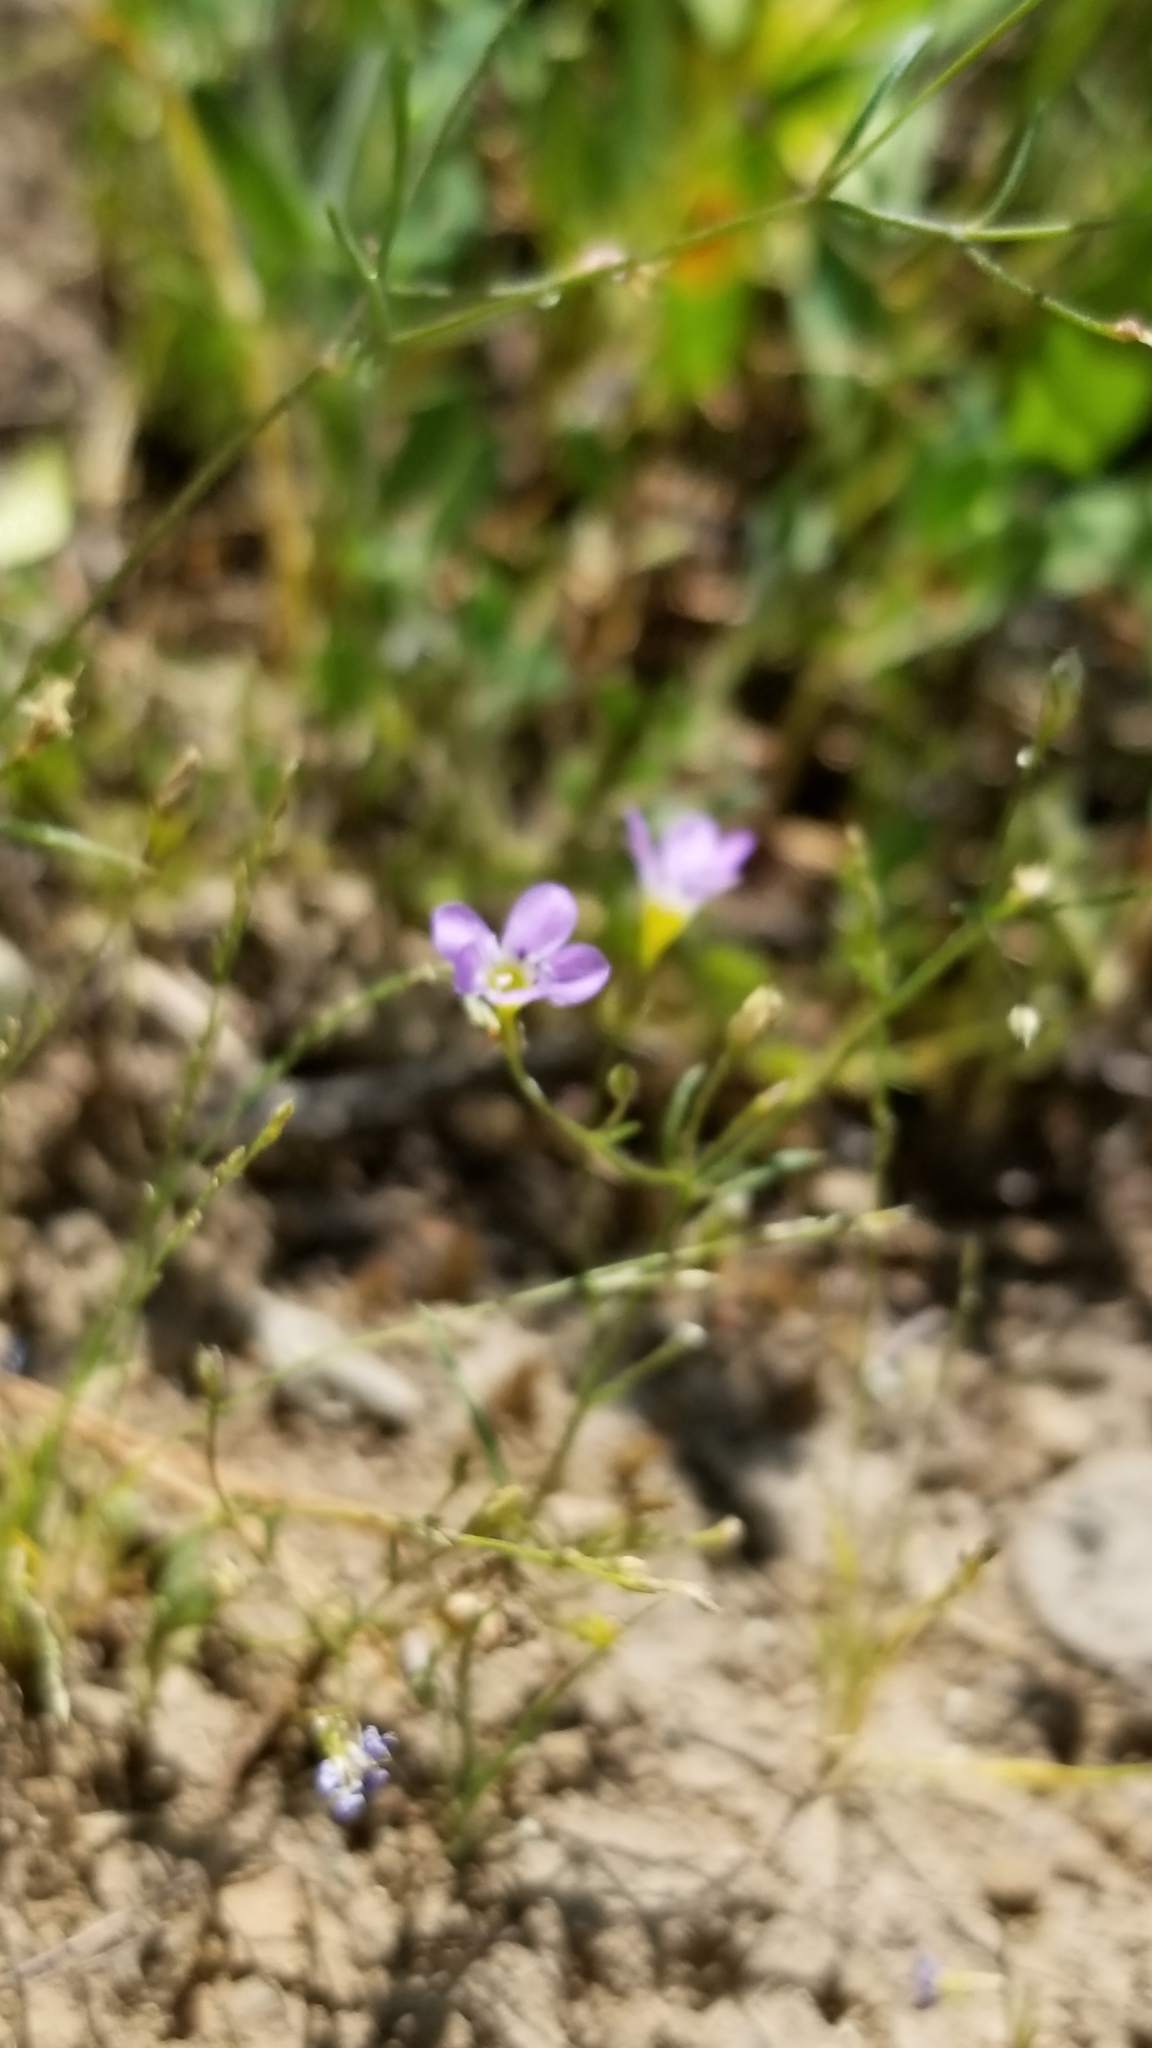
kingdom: Plantae
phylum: Tracheophyta
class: Magnoliopsida
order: Ericales
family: Polemoniaceae
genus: Navarretia
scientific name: Navarretia leptalea
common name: Bridges' pincushionplant
